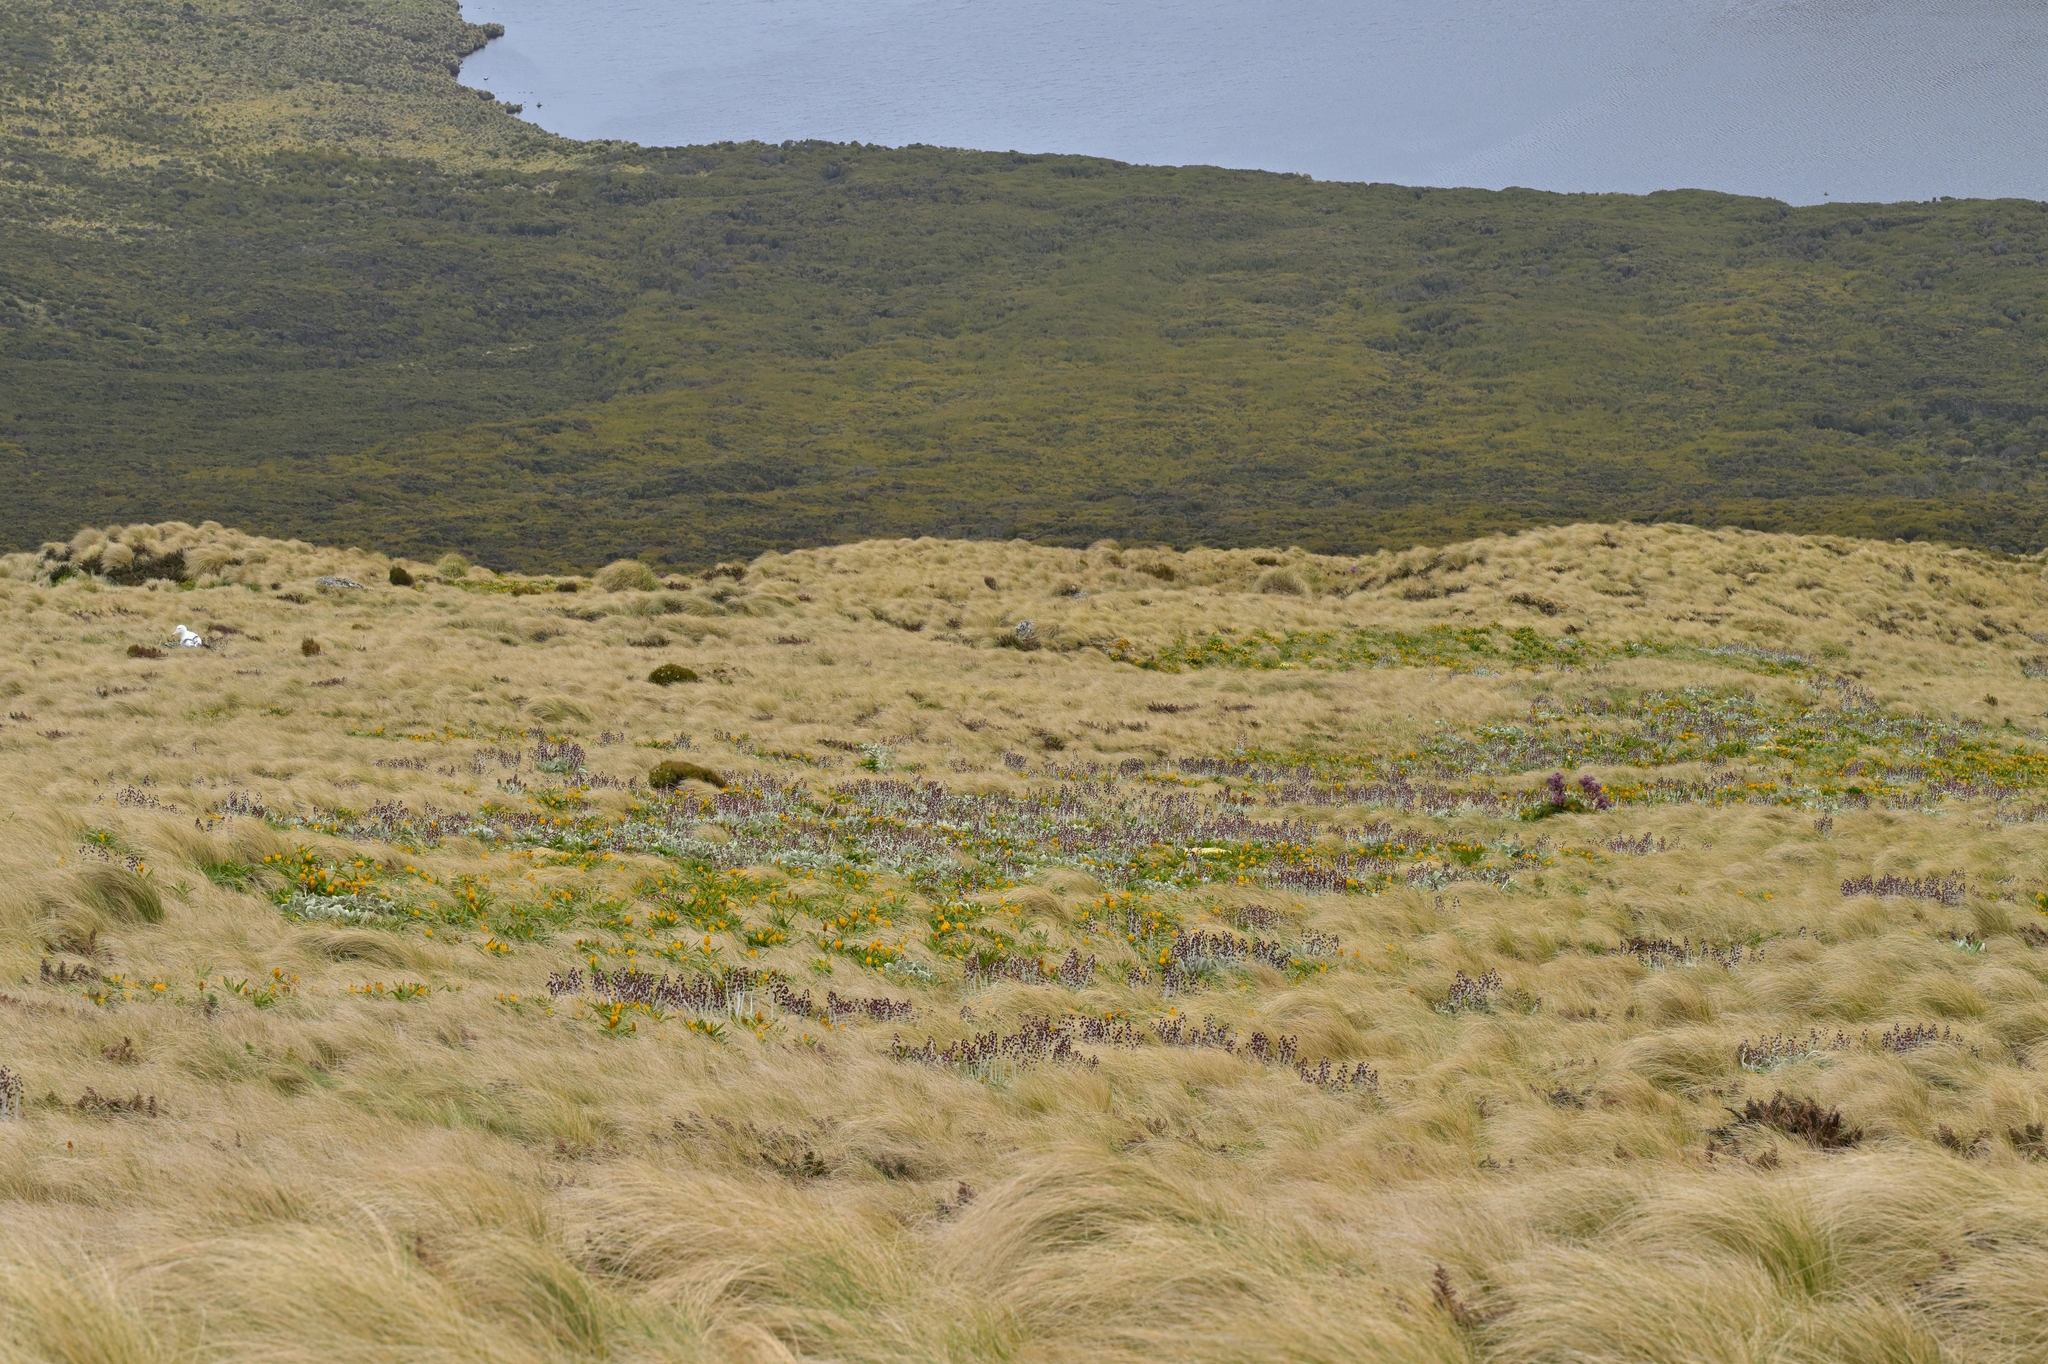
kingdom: Plantae
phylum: Tracheophyta
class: Magnoliopsida
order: Asterales
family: Asteraceae
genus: Pleurophyllum
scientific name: Pleurophyllum hookeri
